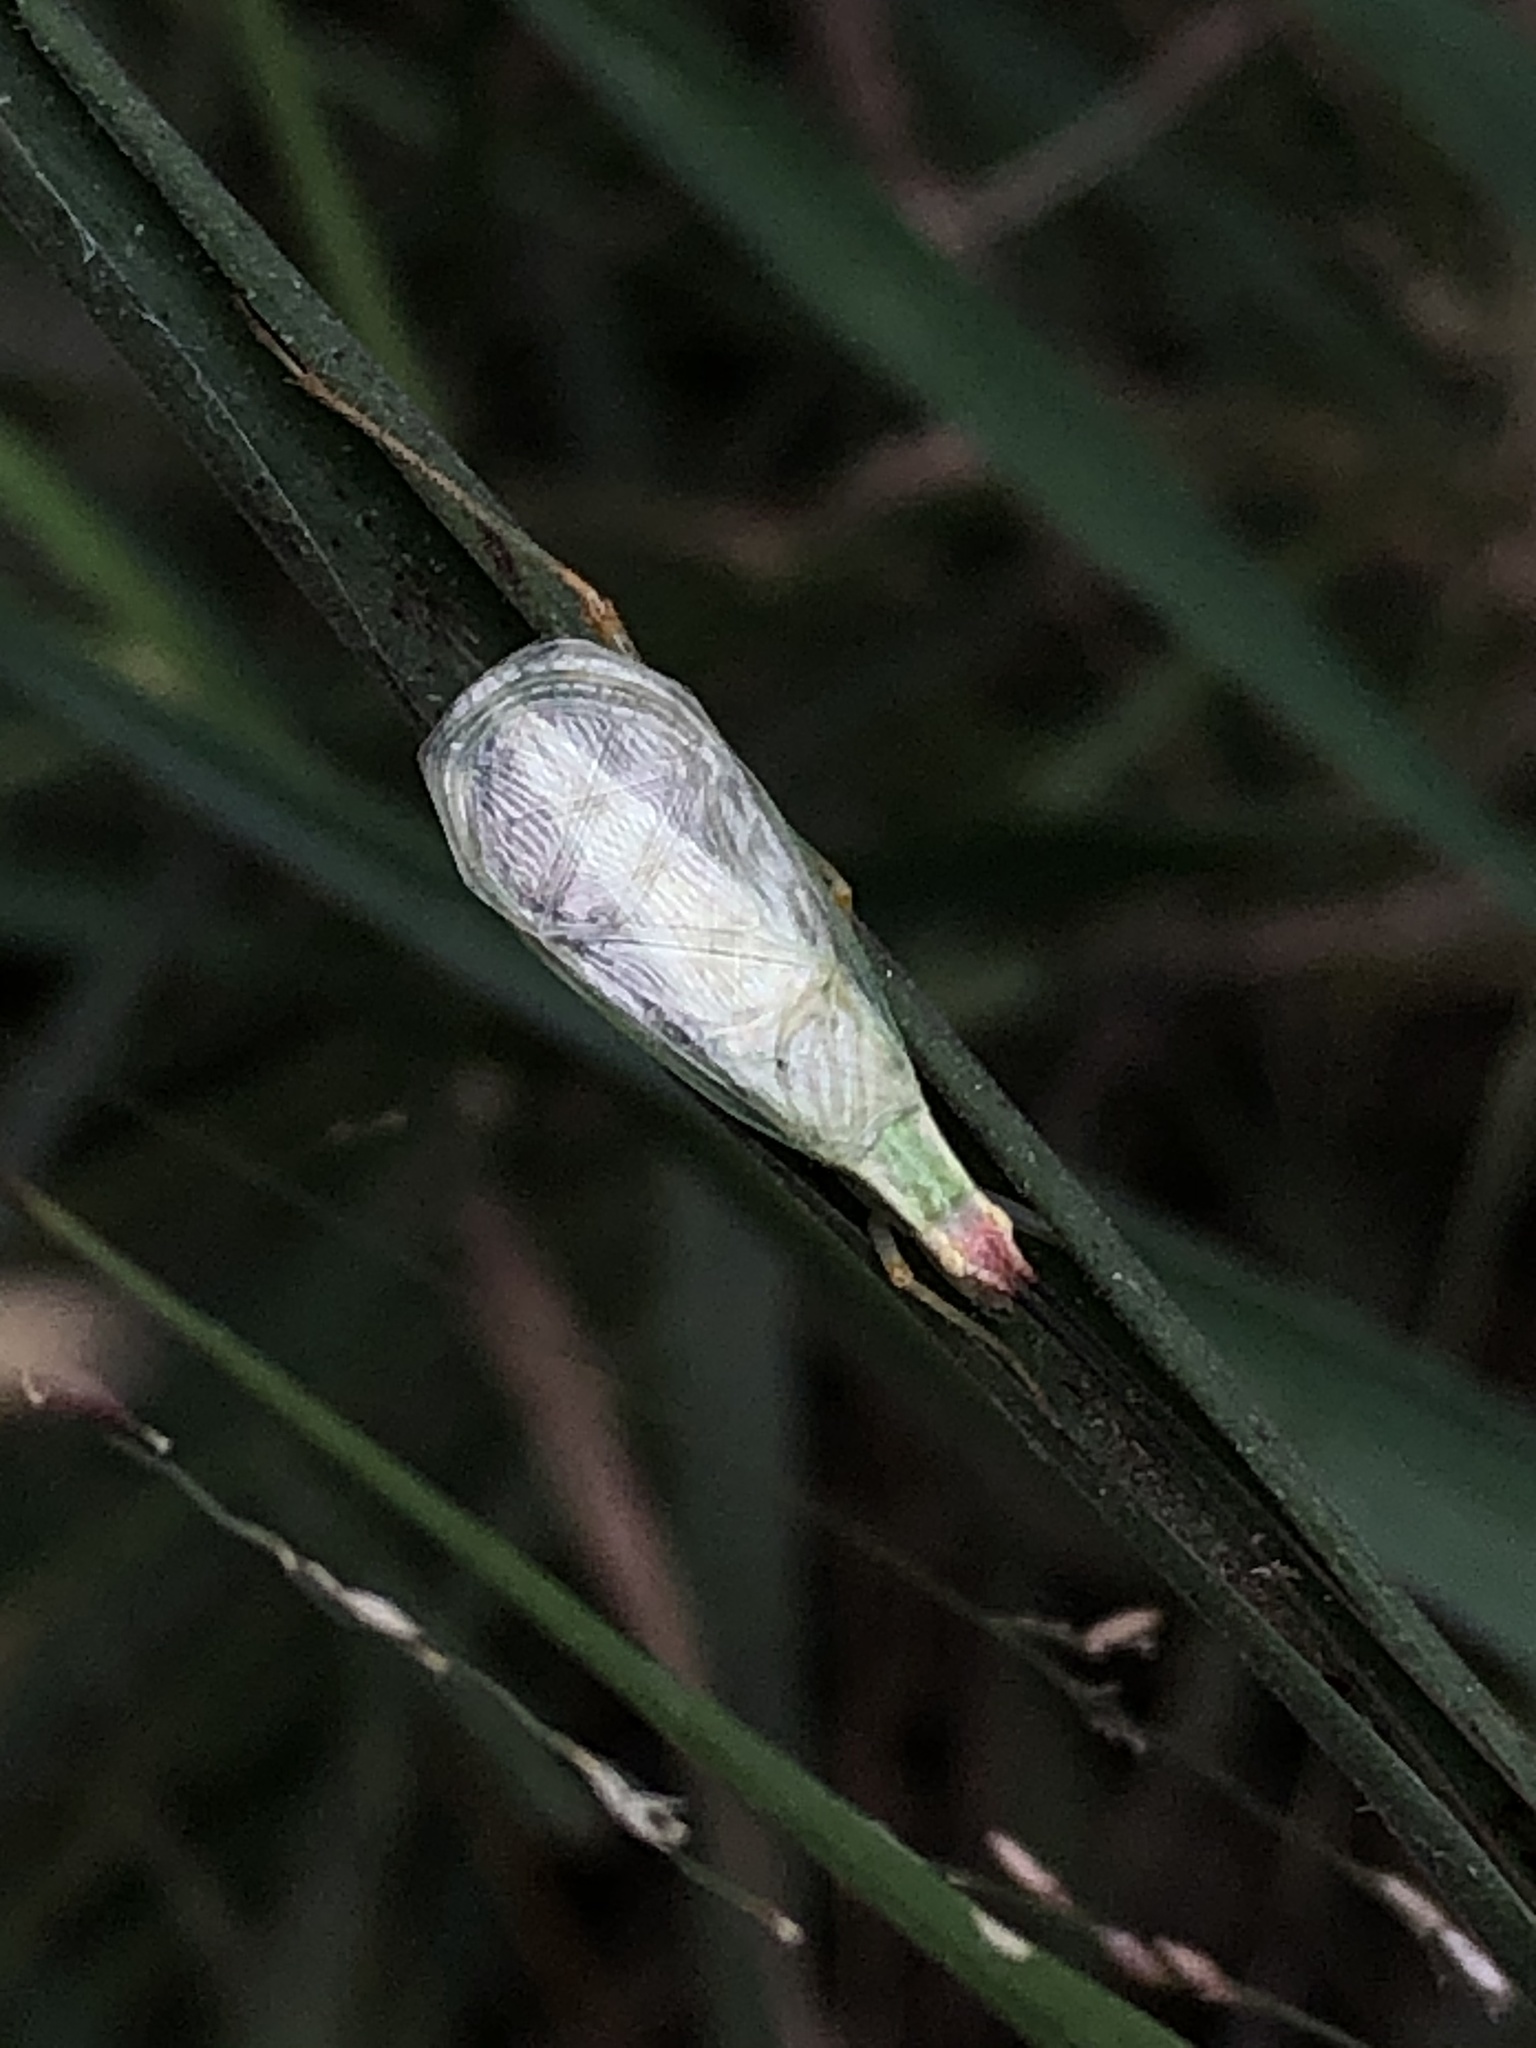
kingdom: Animalia
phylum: Arthropoda
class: Insecta
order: Orthoptera
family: Gryllidae
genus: Oecanthus
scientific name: Oecanthus varicornis
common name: Different-horned tree cricket
